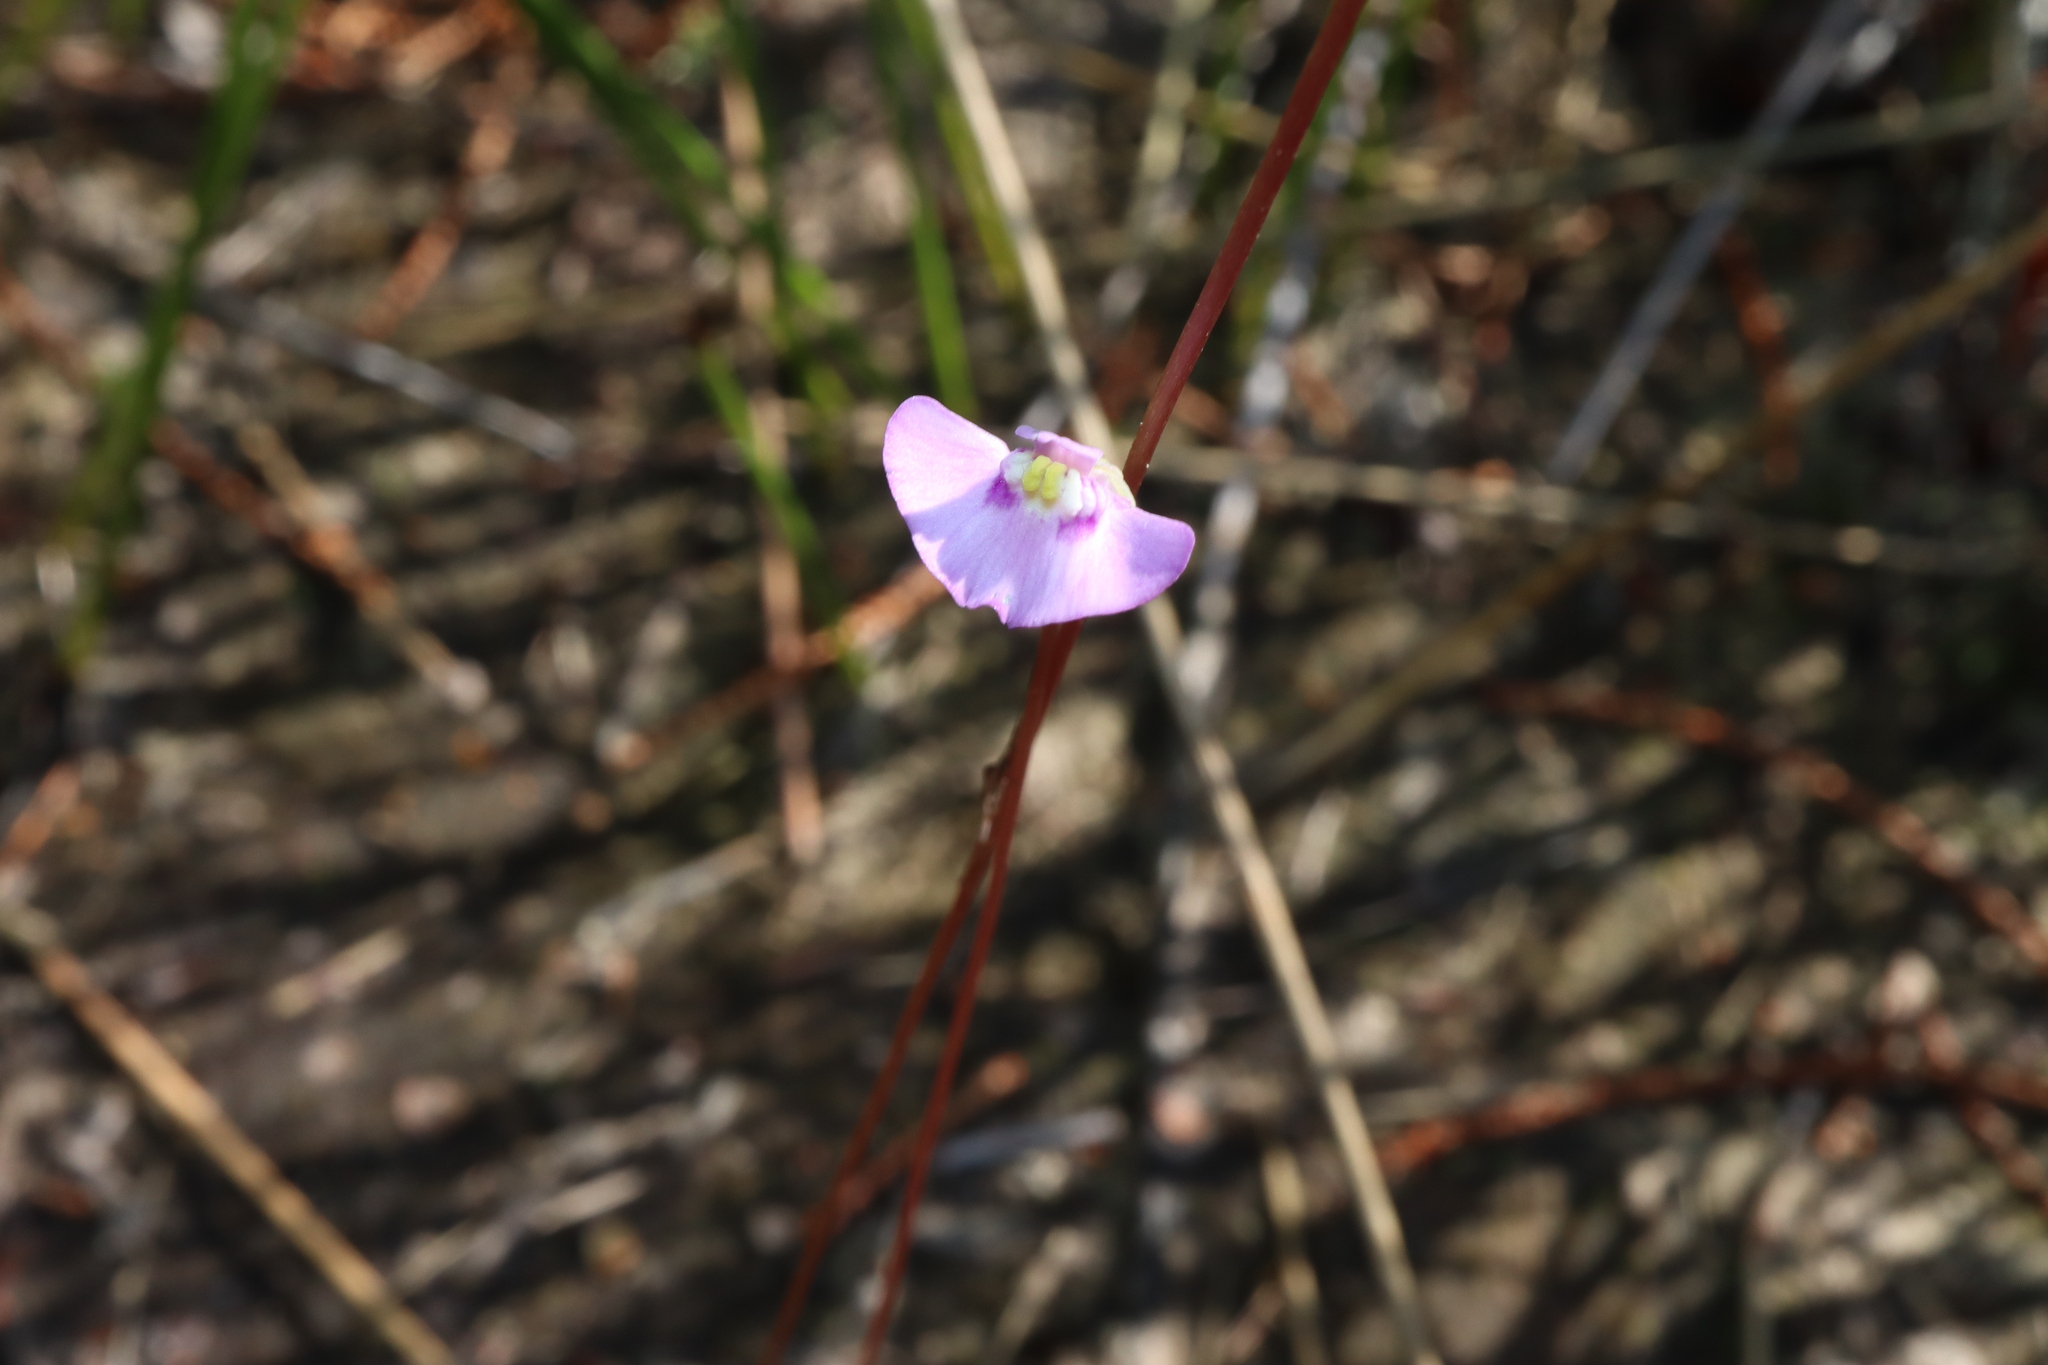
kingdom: Plantae
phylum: Tracheophyta
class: Magnoliopsida
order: Lamiales
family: Lentibulariaceae
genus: Utricularia
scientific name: Utricularia uniflora
